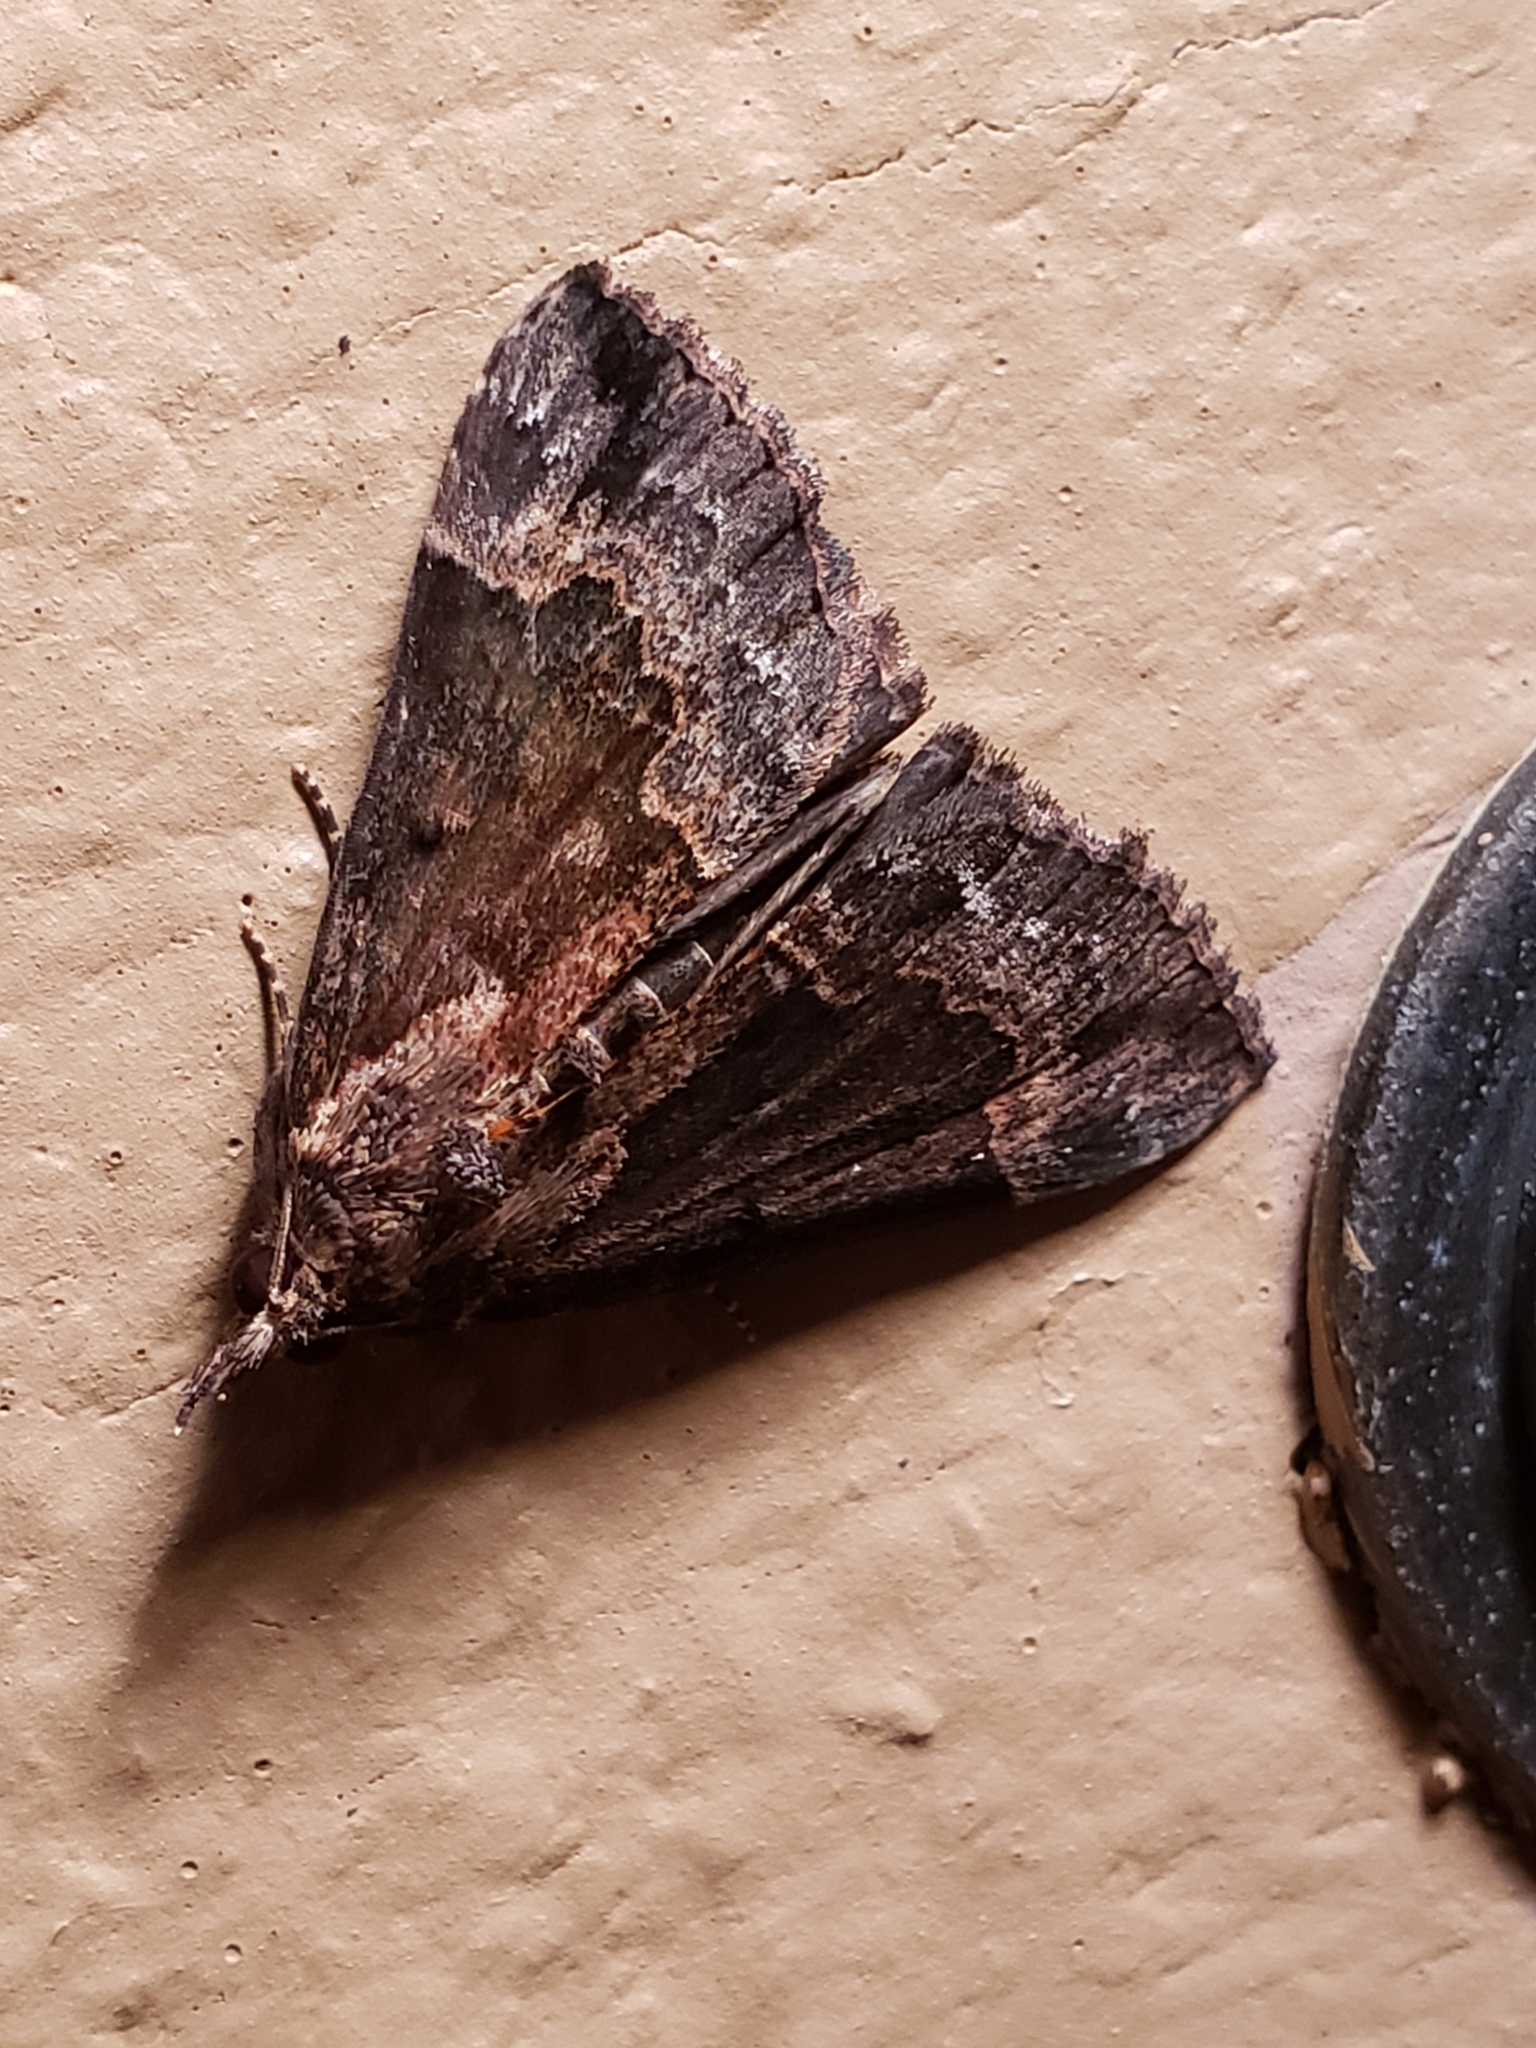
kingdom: Animalia
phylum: Arthropoda
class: Insecta
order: Lepidoptera
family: Erebidae
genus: Hypena
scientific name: Hypena baltimoralis
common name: Baltimore snout
